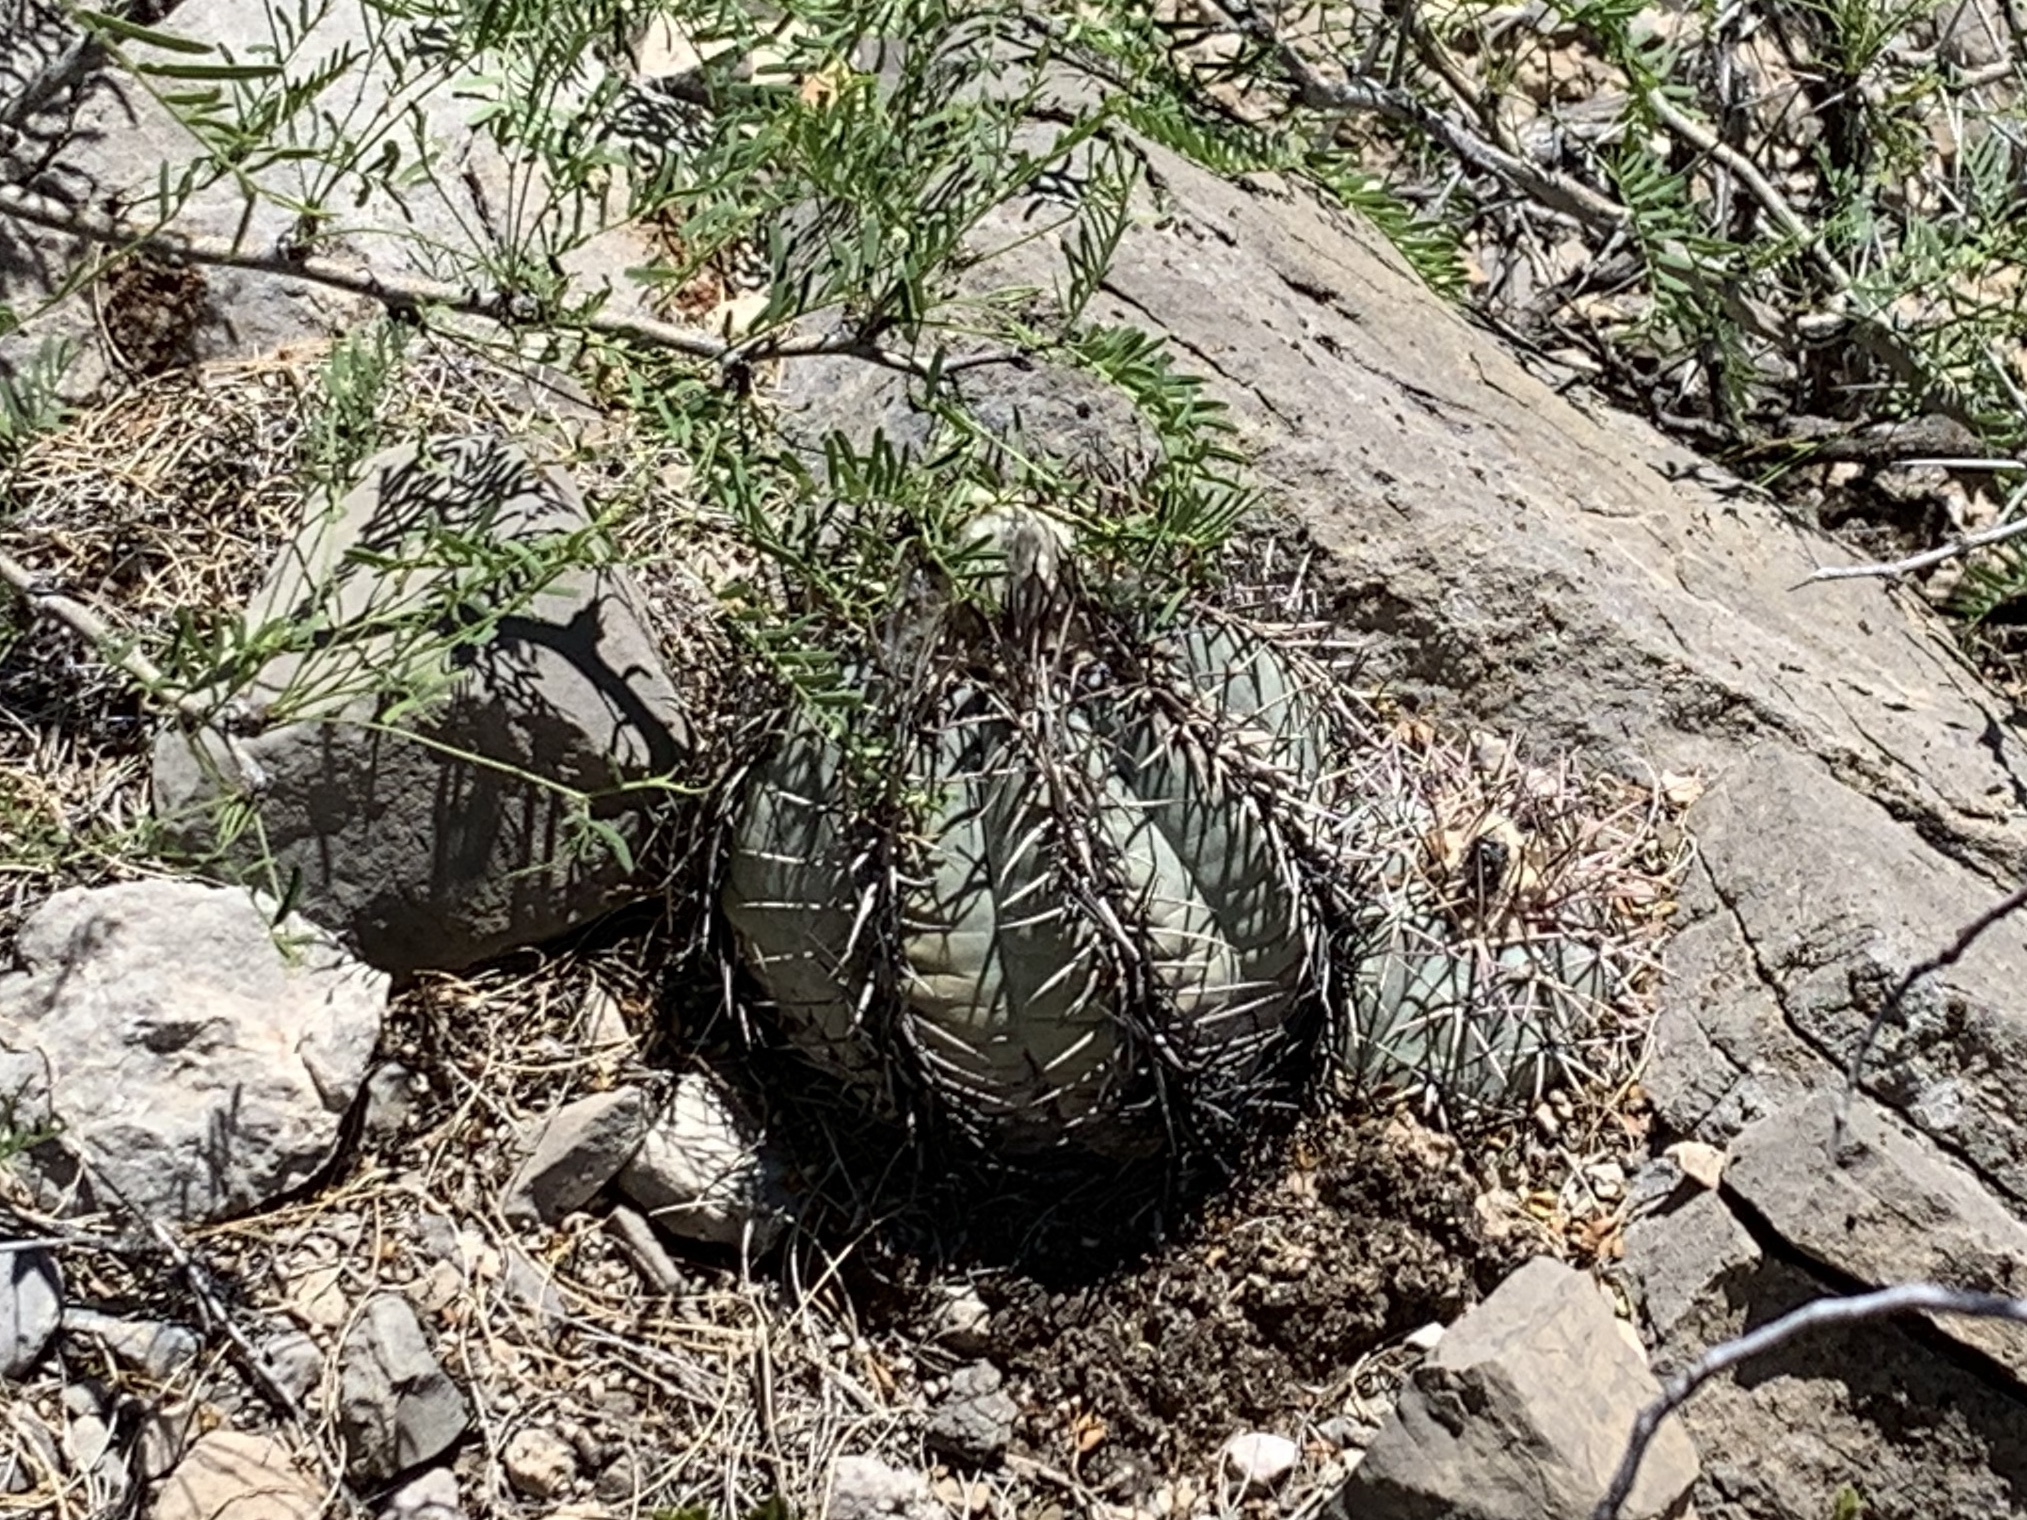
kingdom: Plantae
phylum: Tracheophyta
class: Magnoliopsida
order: Caryophyllales
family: Cactaceae
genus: Echinocactus
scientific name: Echinocactus horizonthalonius
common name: Devilshead
